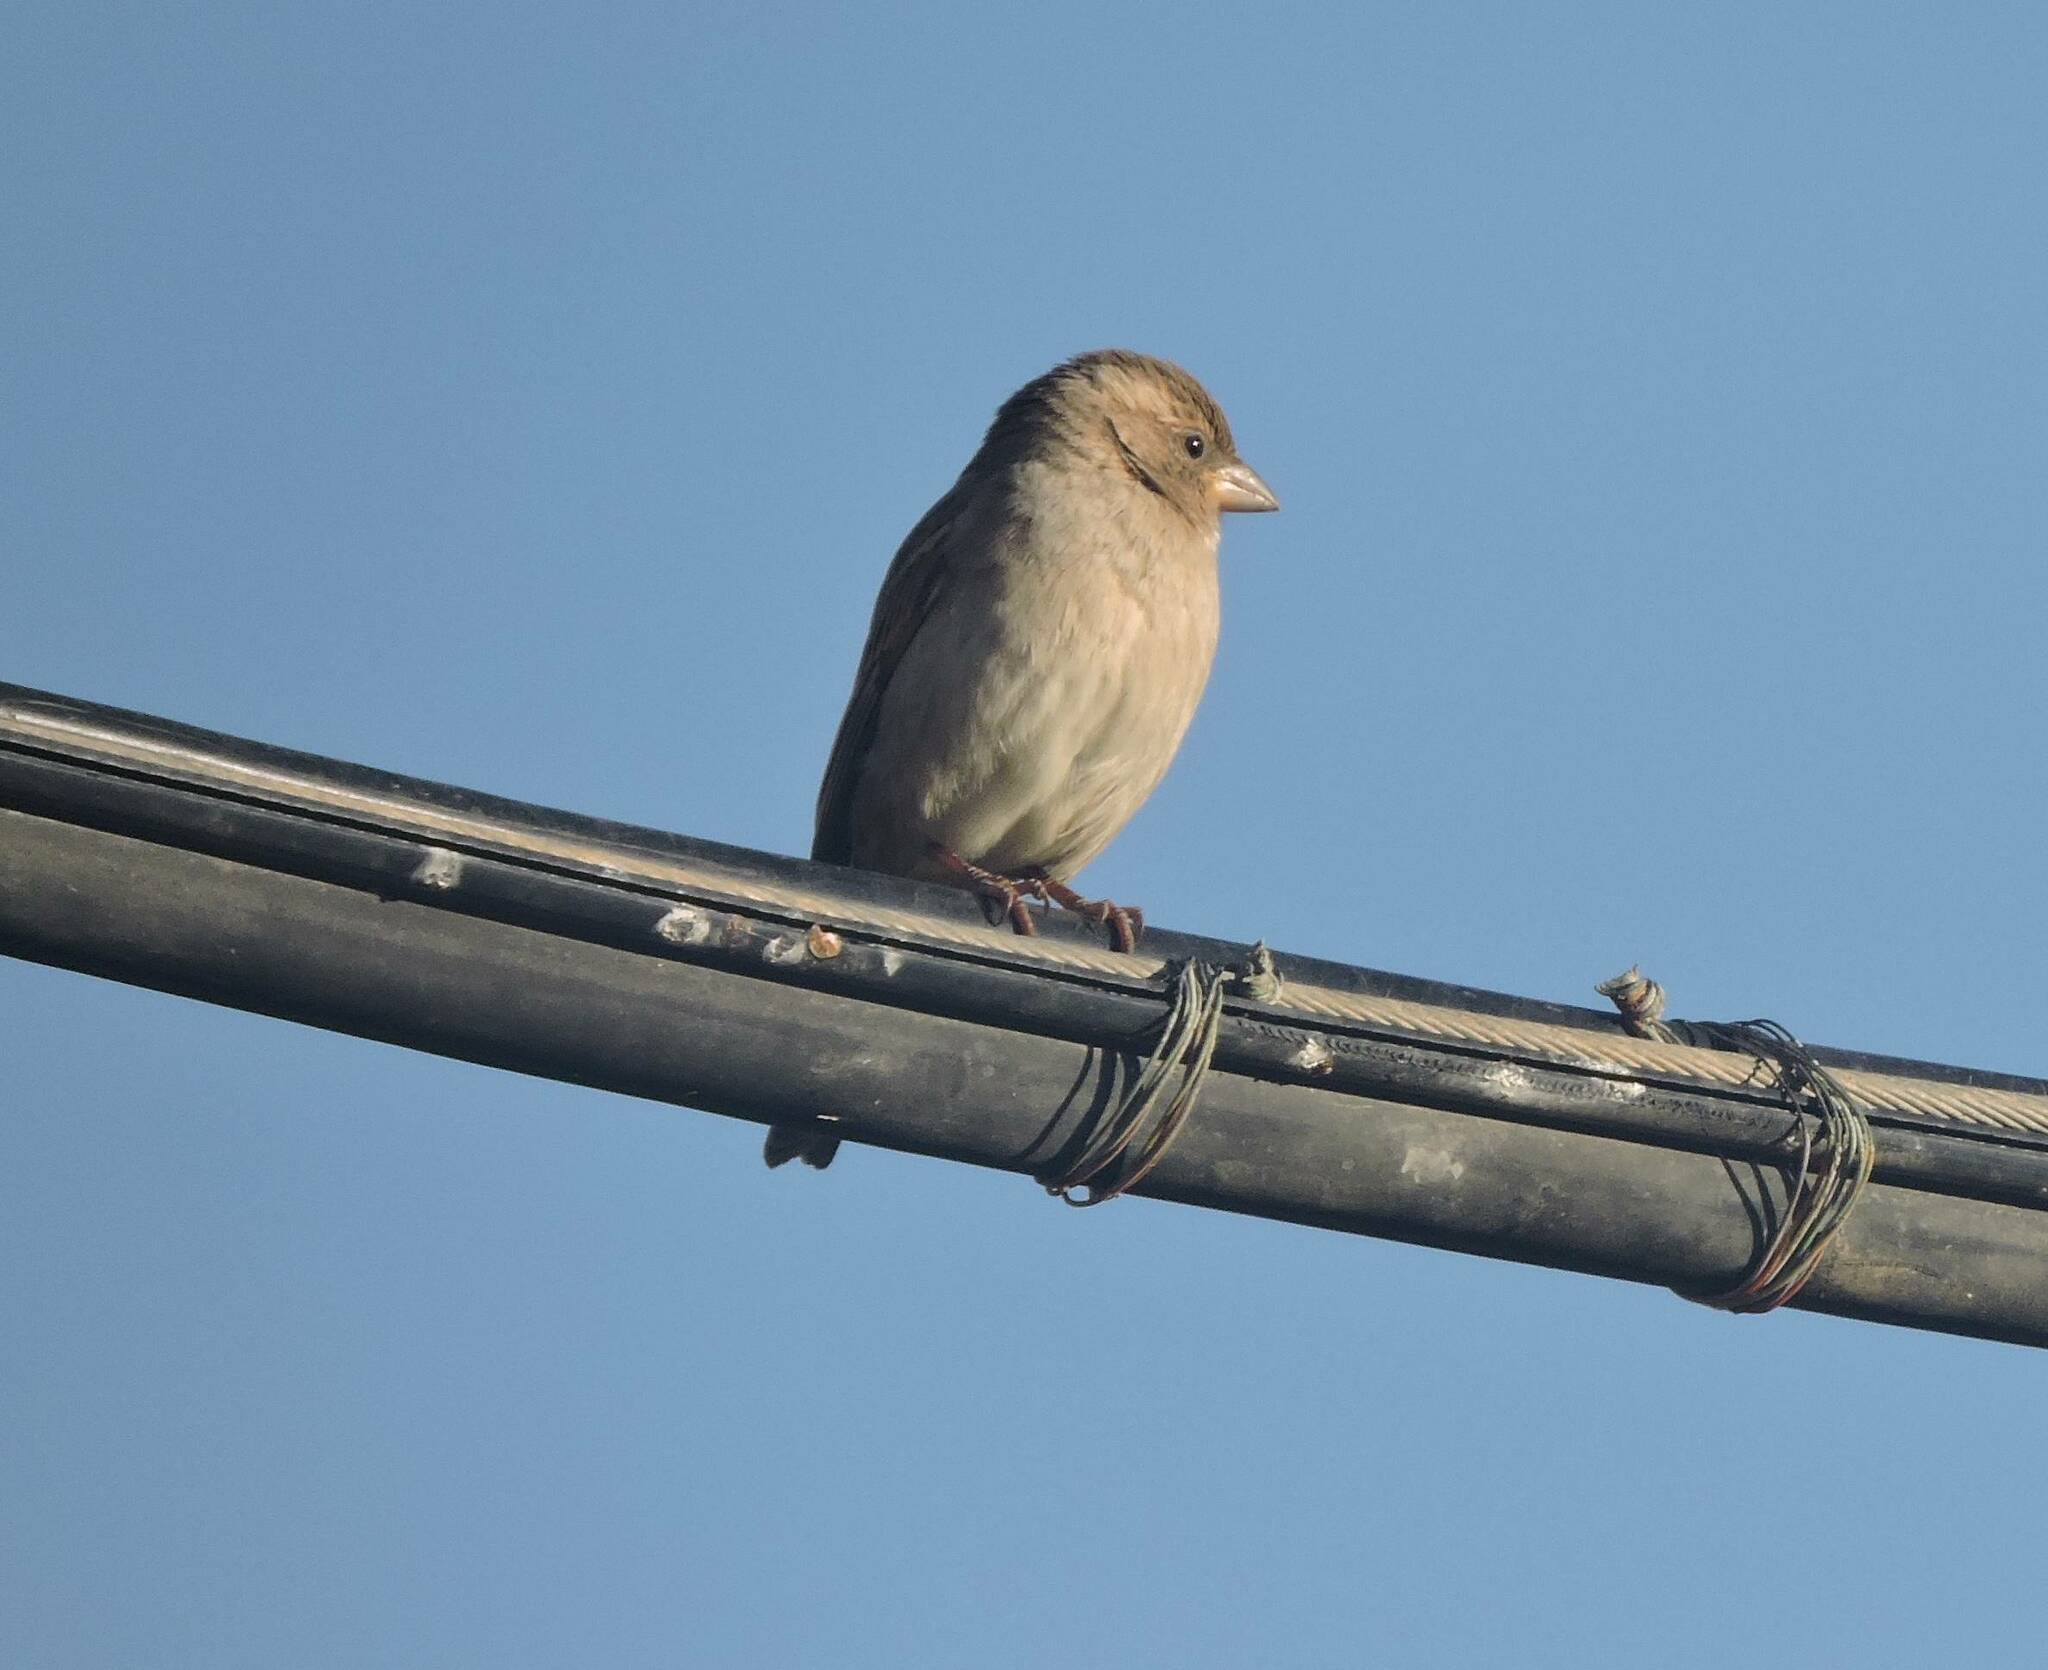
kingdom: Animalia
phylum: Chordata
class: Aves
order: Passeriformes
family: Passeridae
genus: Passer
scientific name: Passer domesticus
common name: House sparrow
